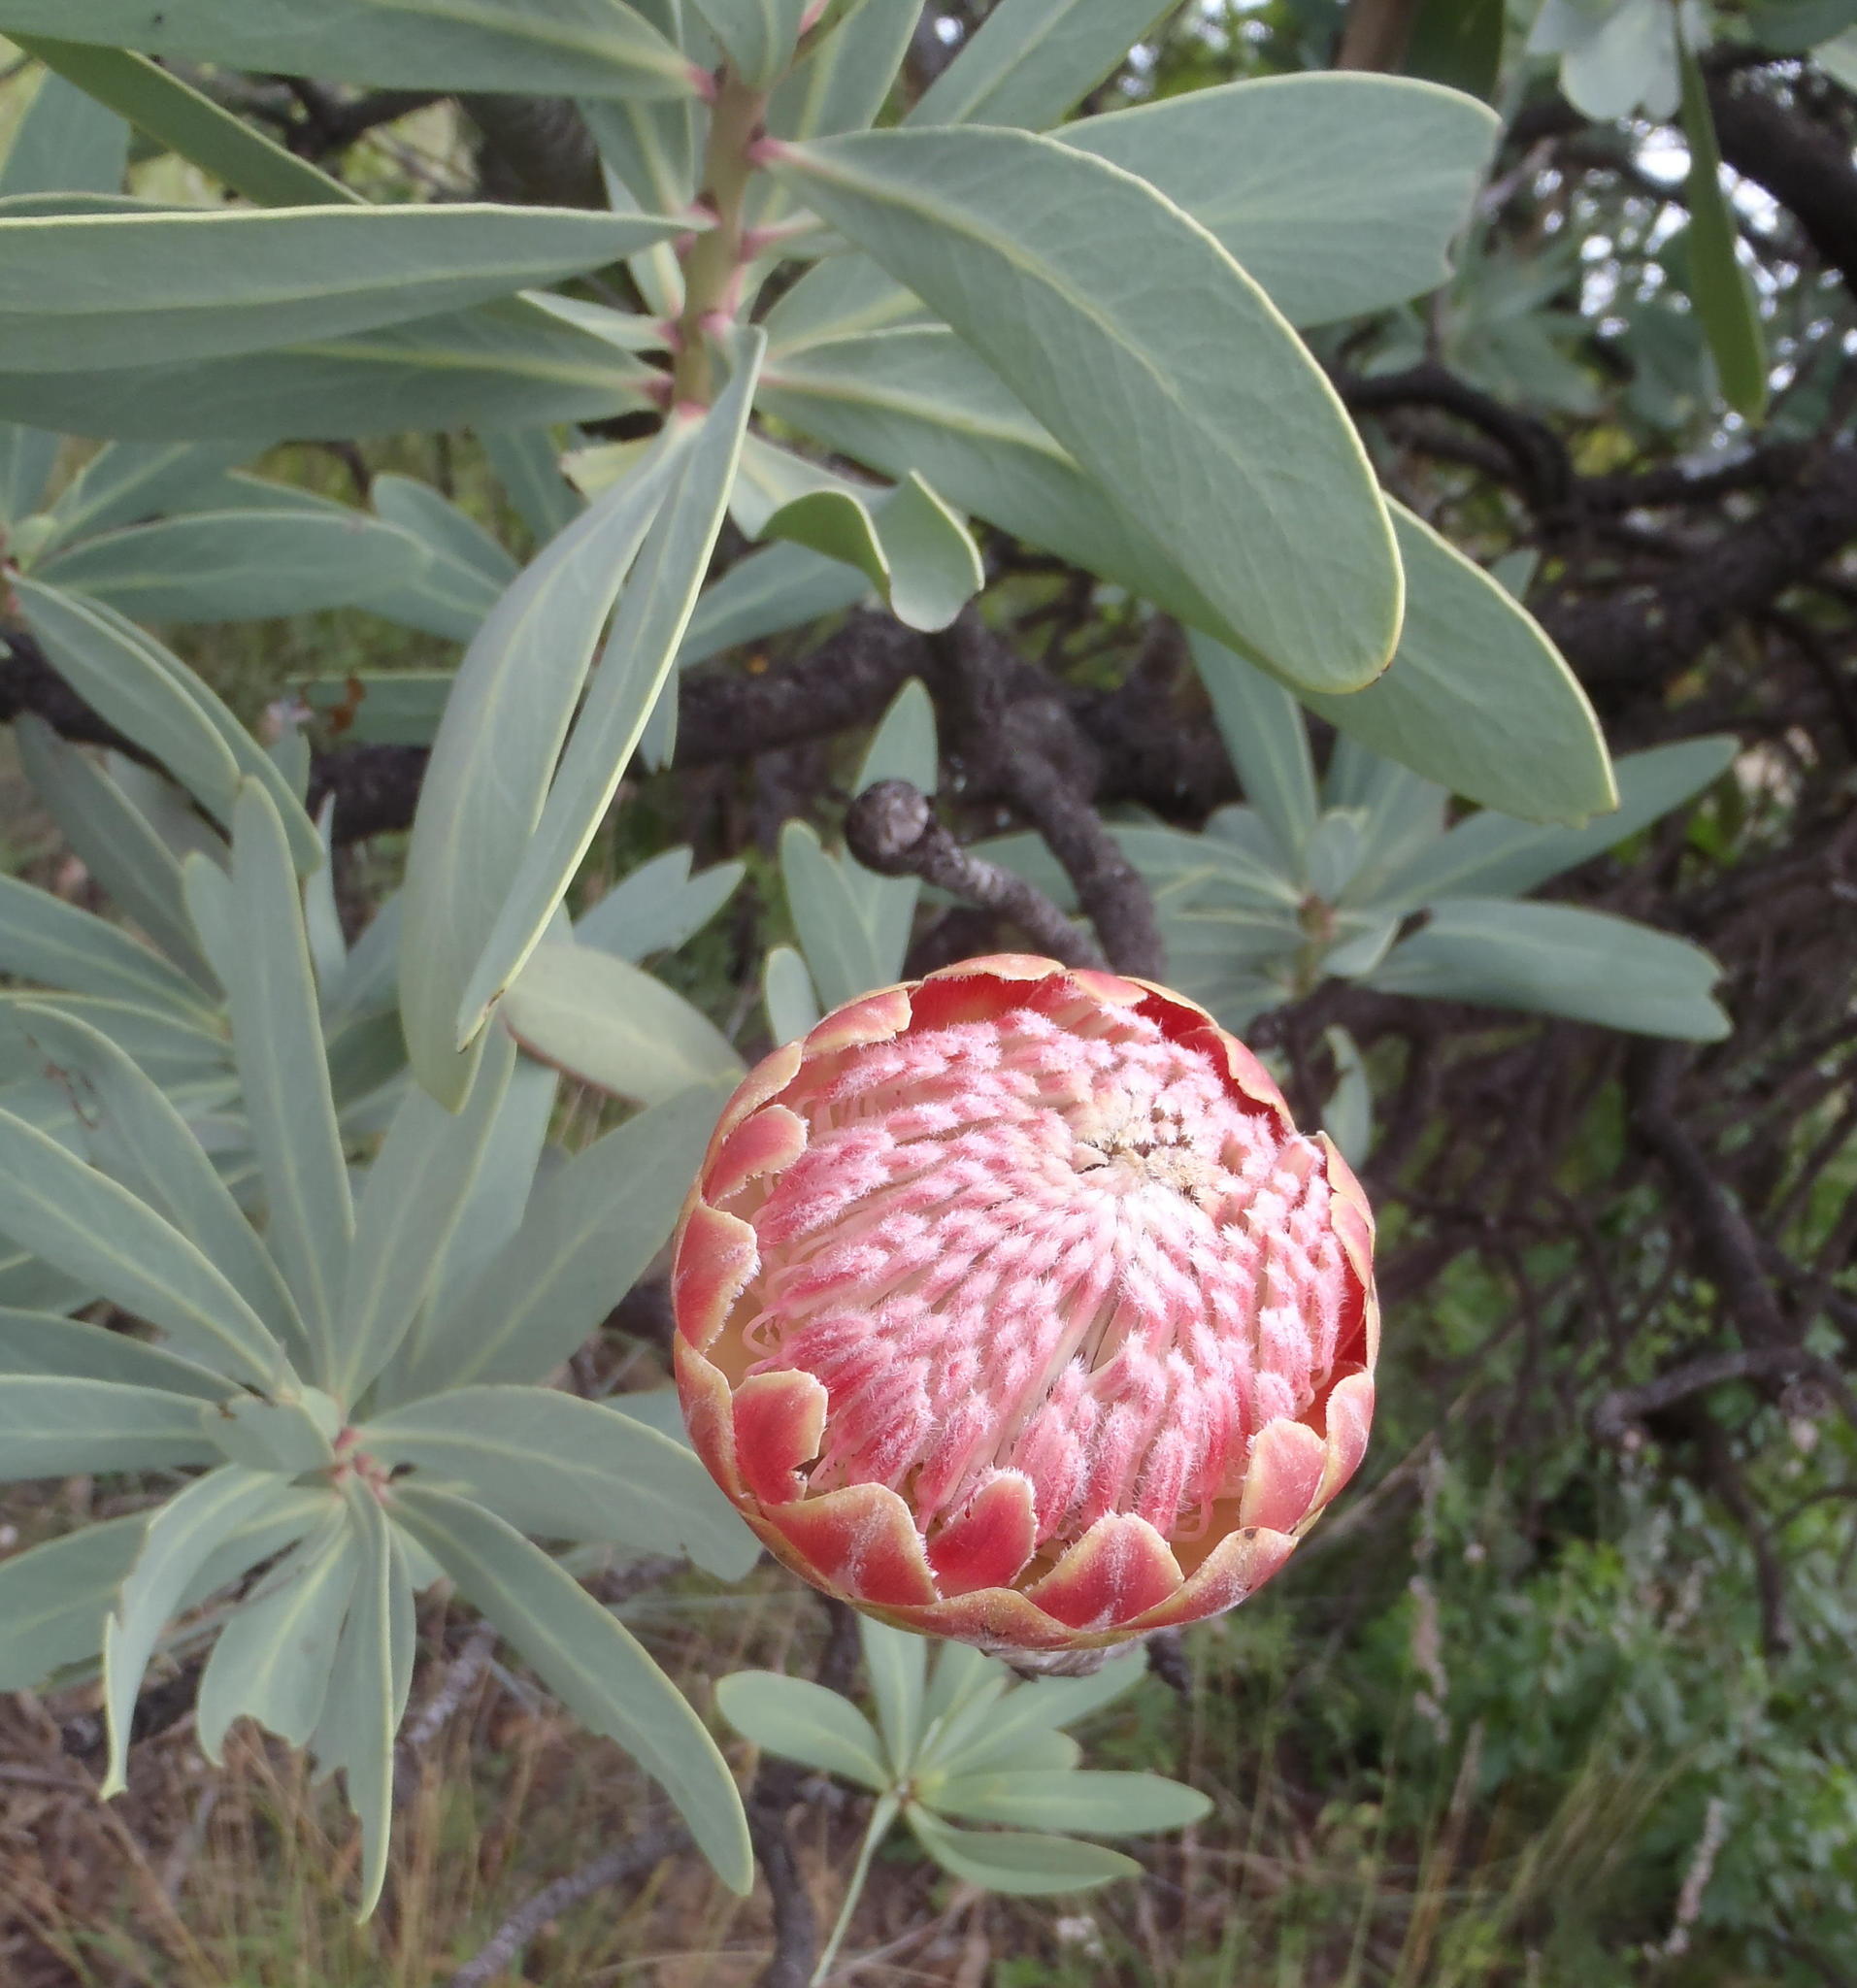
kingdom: Plantae
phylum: Tracheophyta
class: Magnoliopsida
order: Proteales
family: Proteaceae
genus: Protea
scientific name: Protea caffra
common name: Common sugarbush
